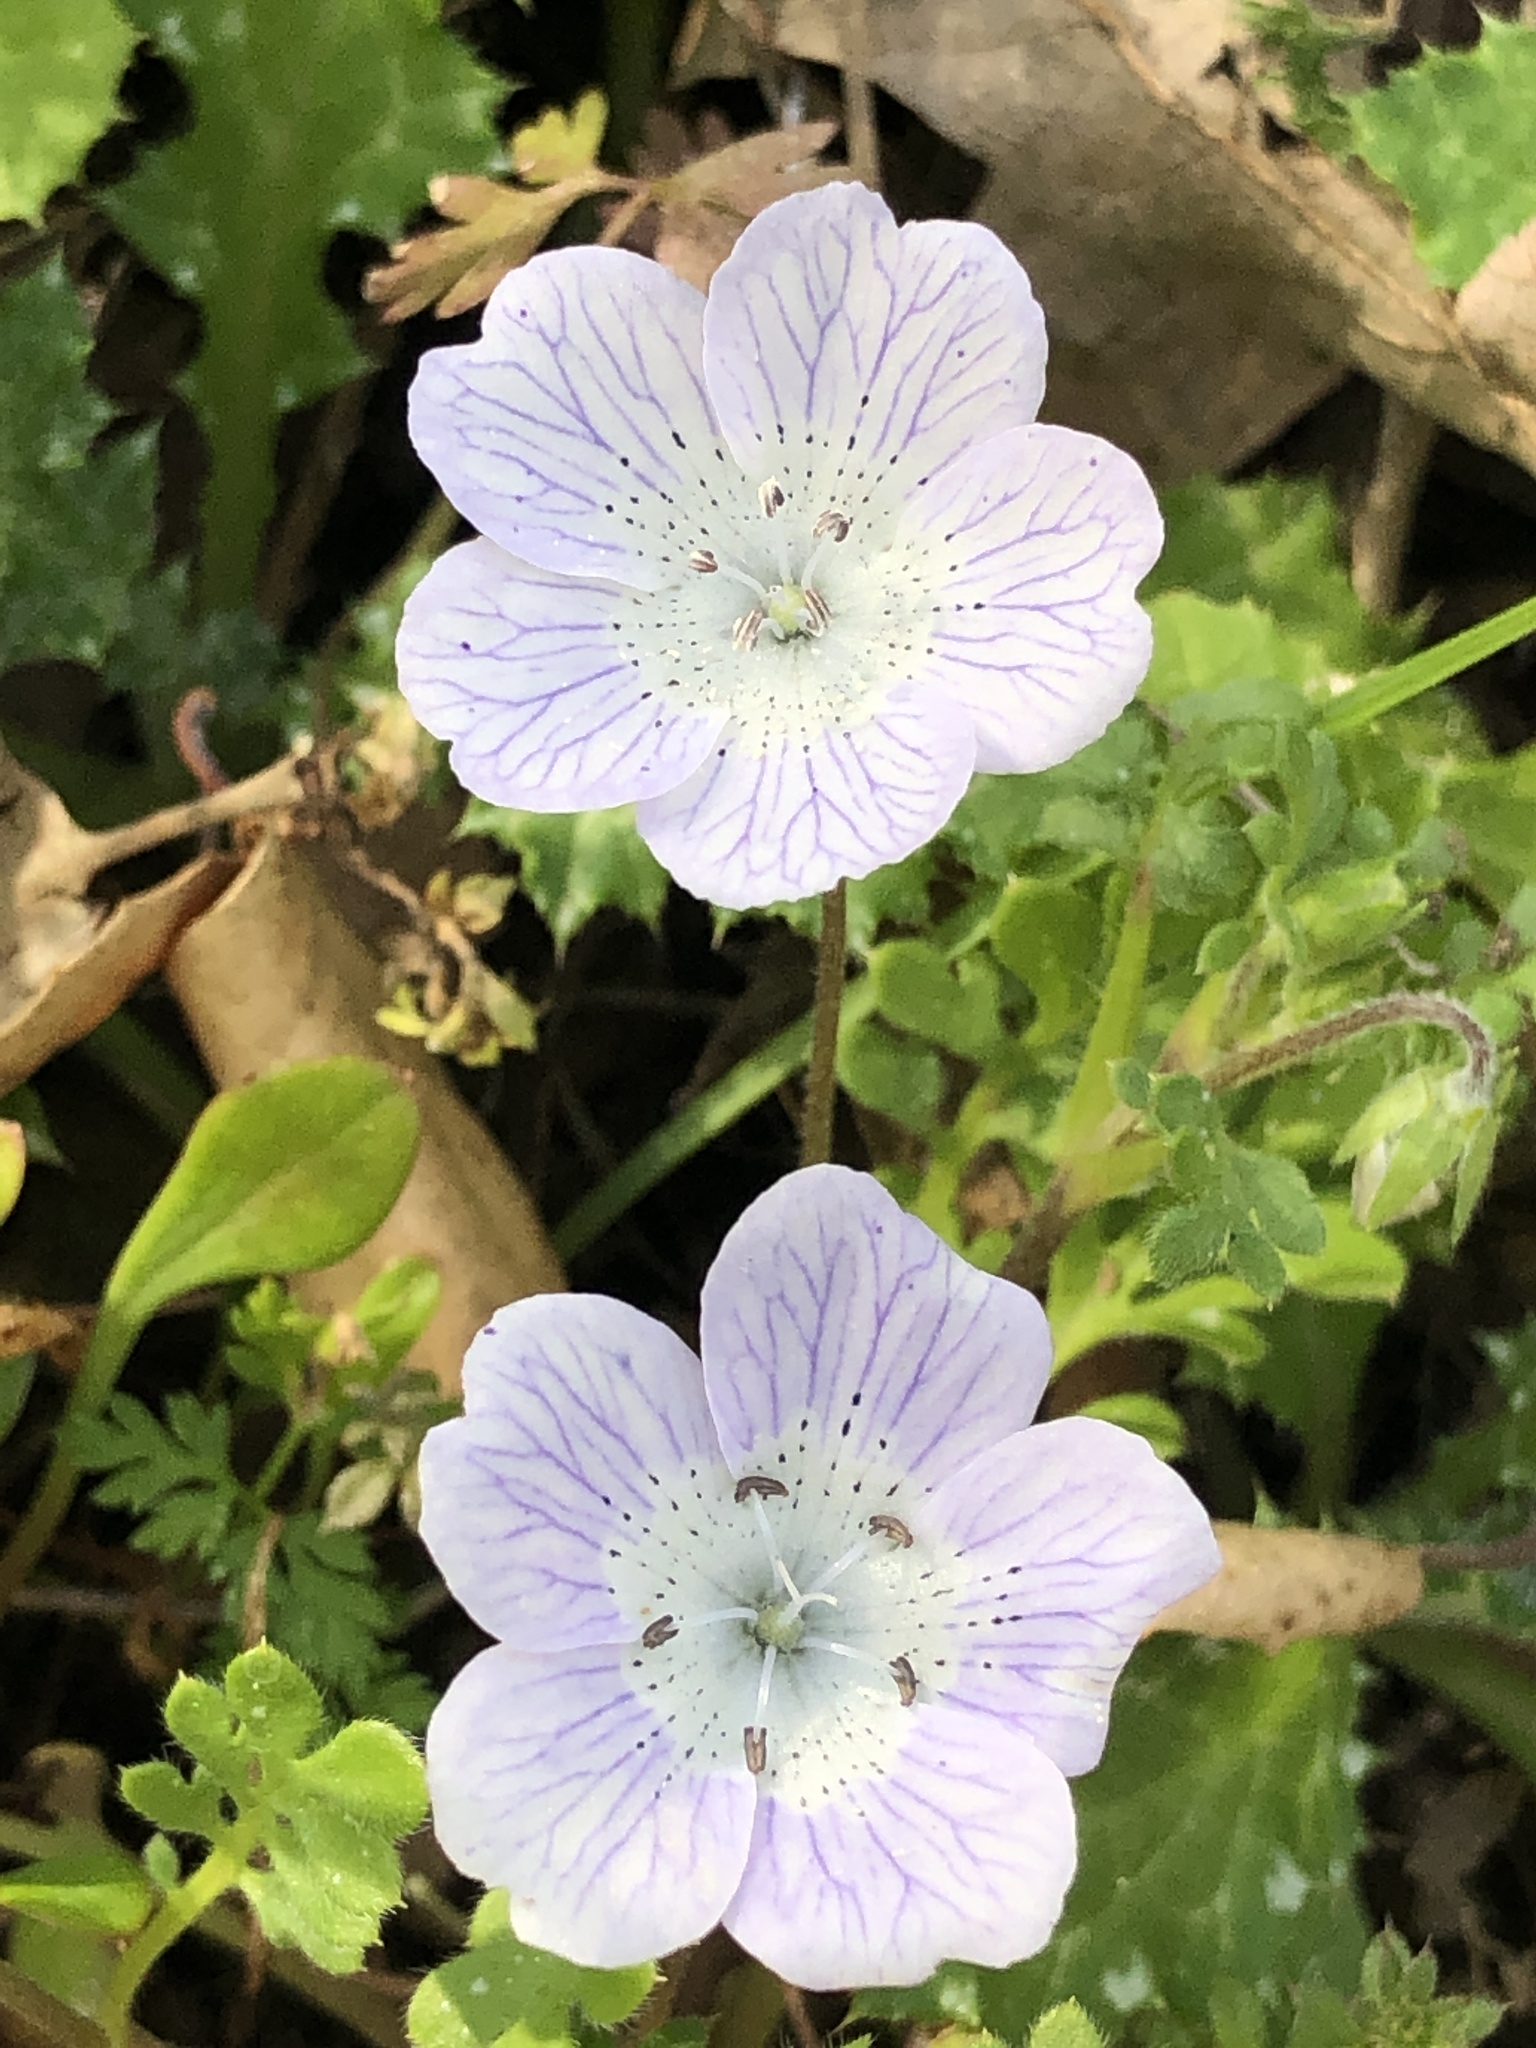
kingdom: Plantae
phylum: Tracheophyta
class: Magnoliopsida
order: Boraginales
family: Hydrophyllaceae
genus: Nemophila
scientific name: Nemophila menziesii
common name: Baby's-blue-eyes
